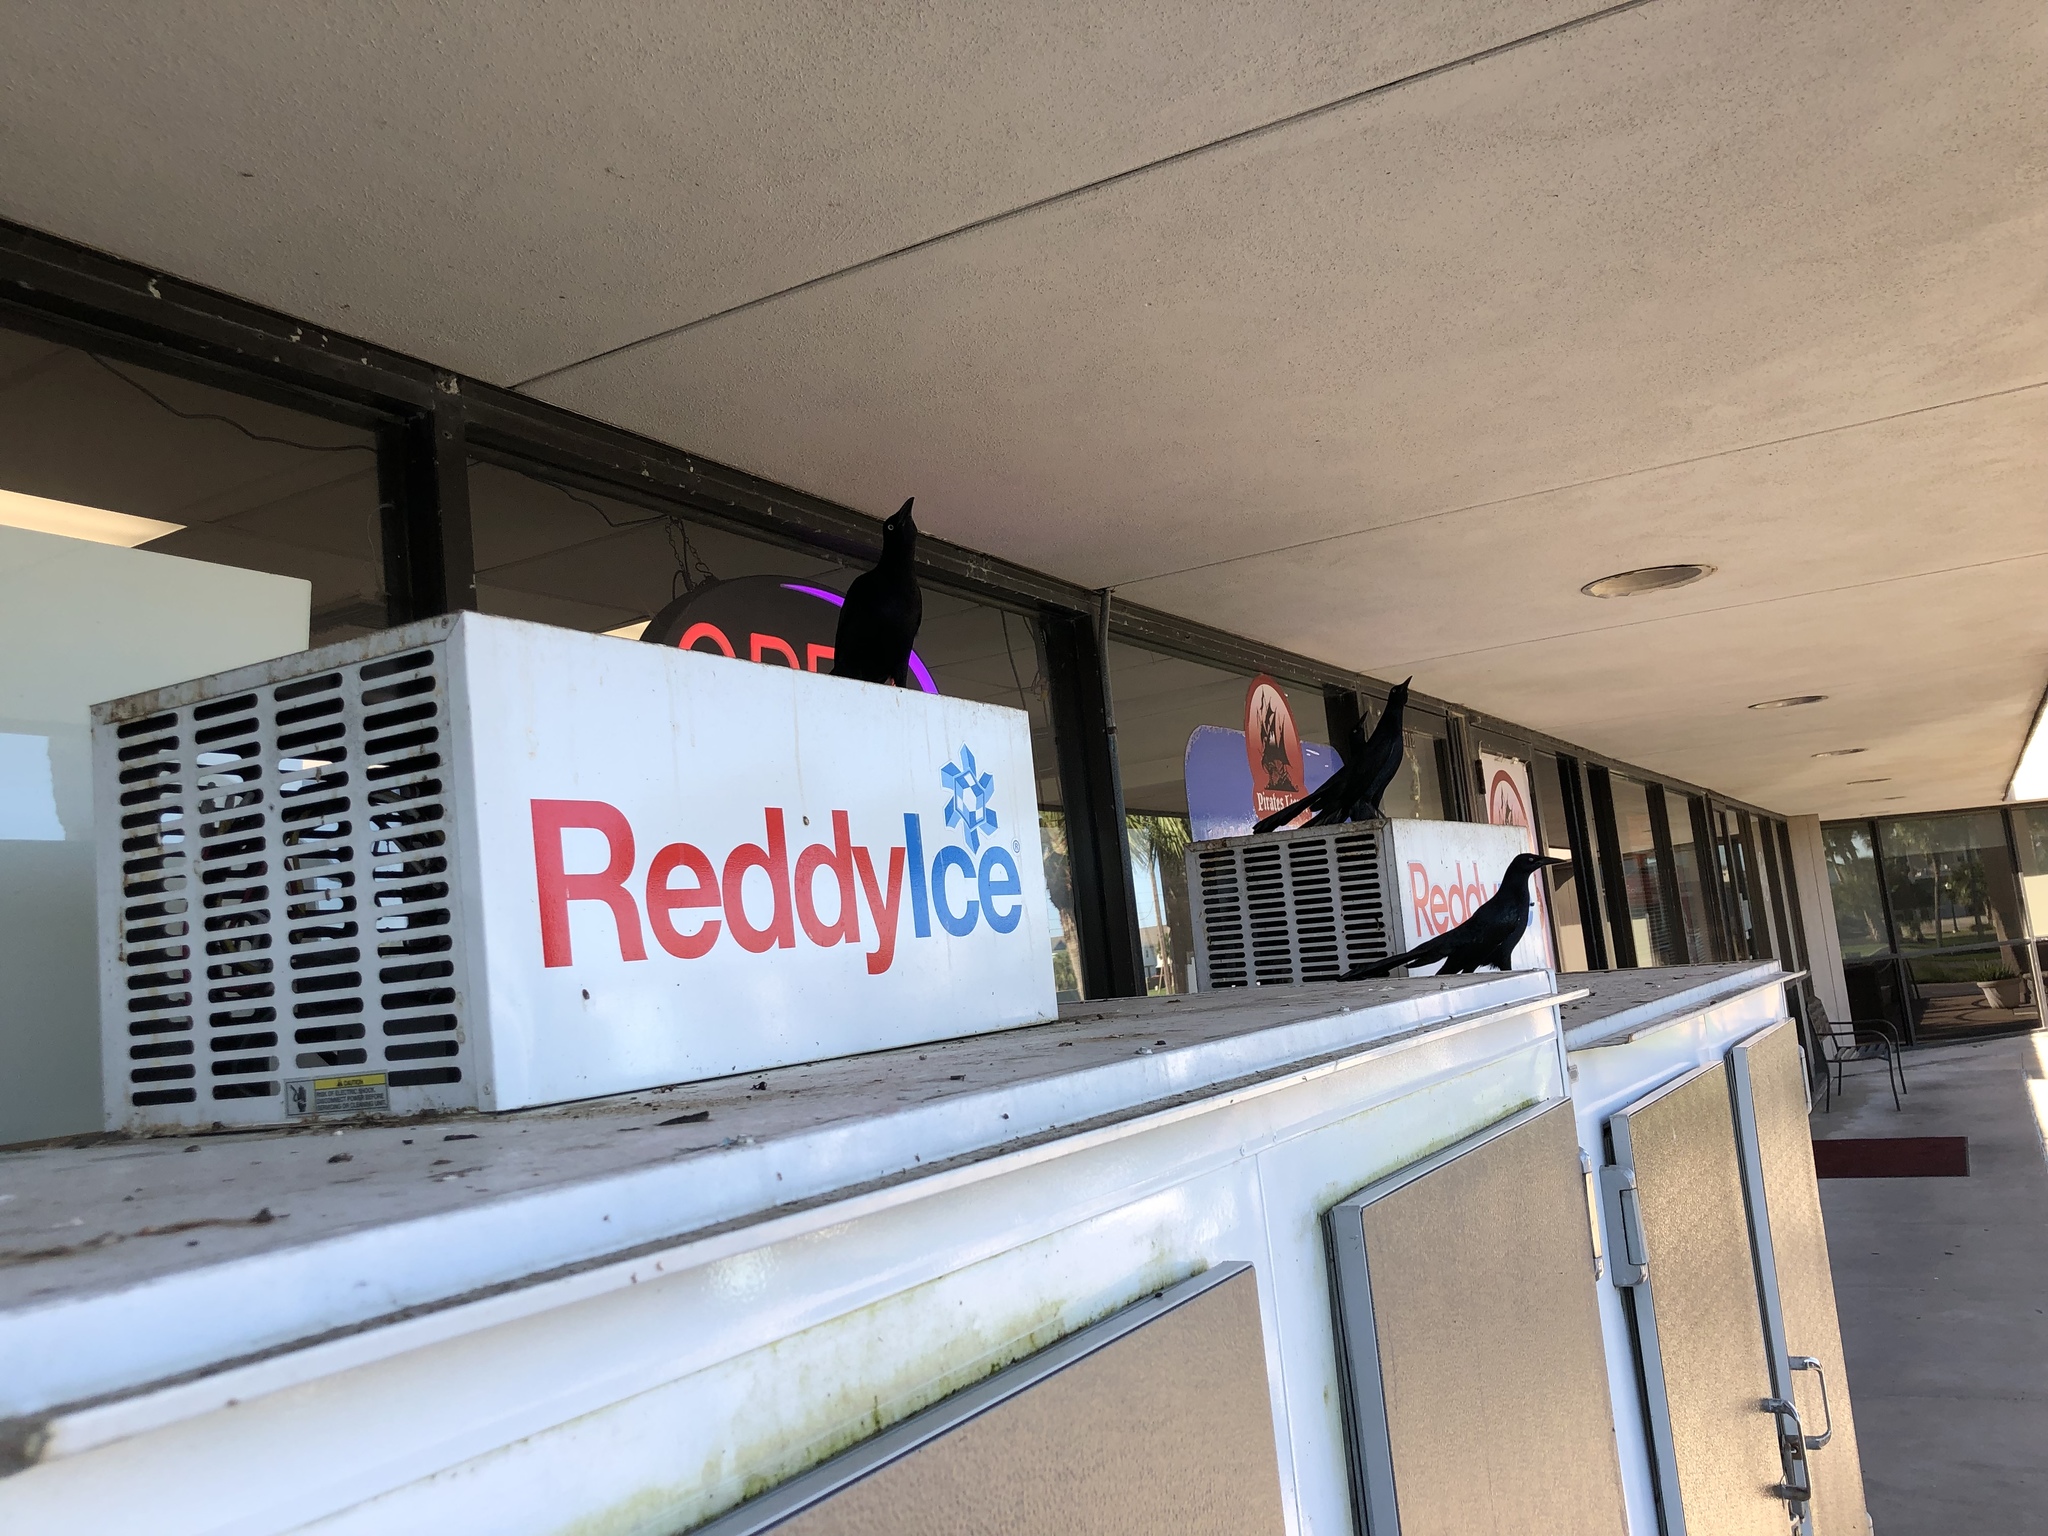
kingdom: Animalia
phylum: Chordata
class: Aves
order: Passeriformes
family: Icteridae
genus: Quiscalus
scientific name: Quiscalus mexicanus
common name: Great-tailed grackle
